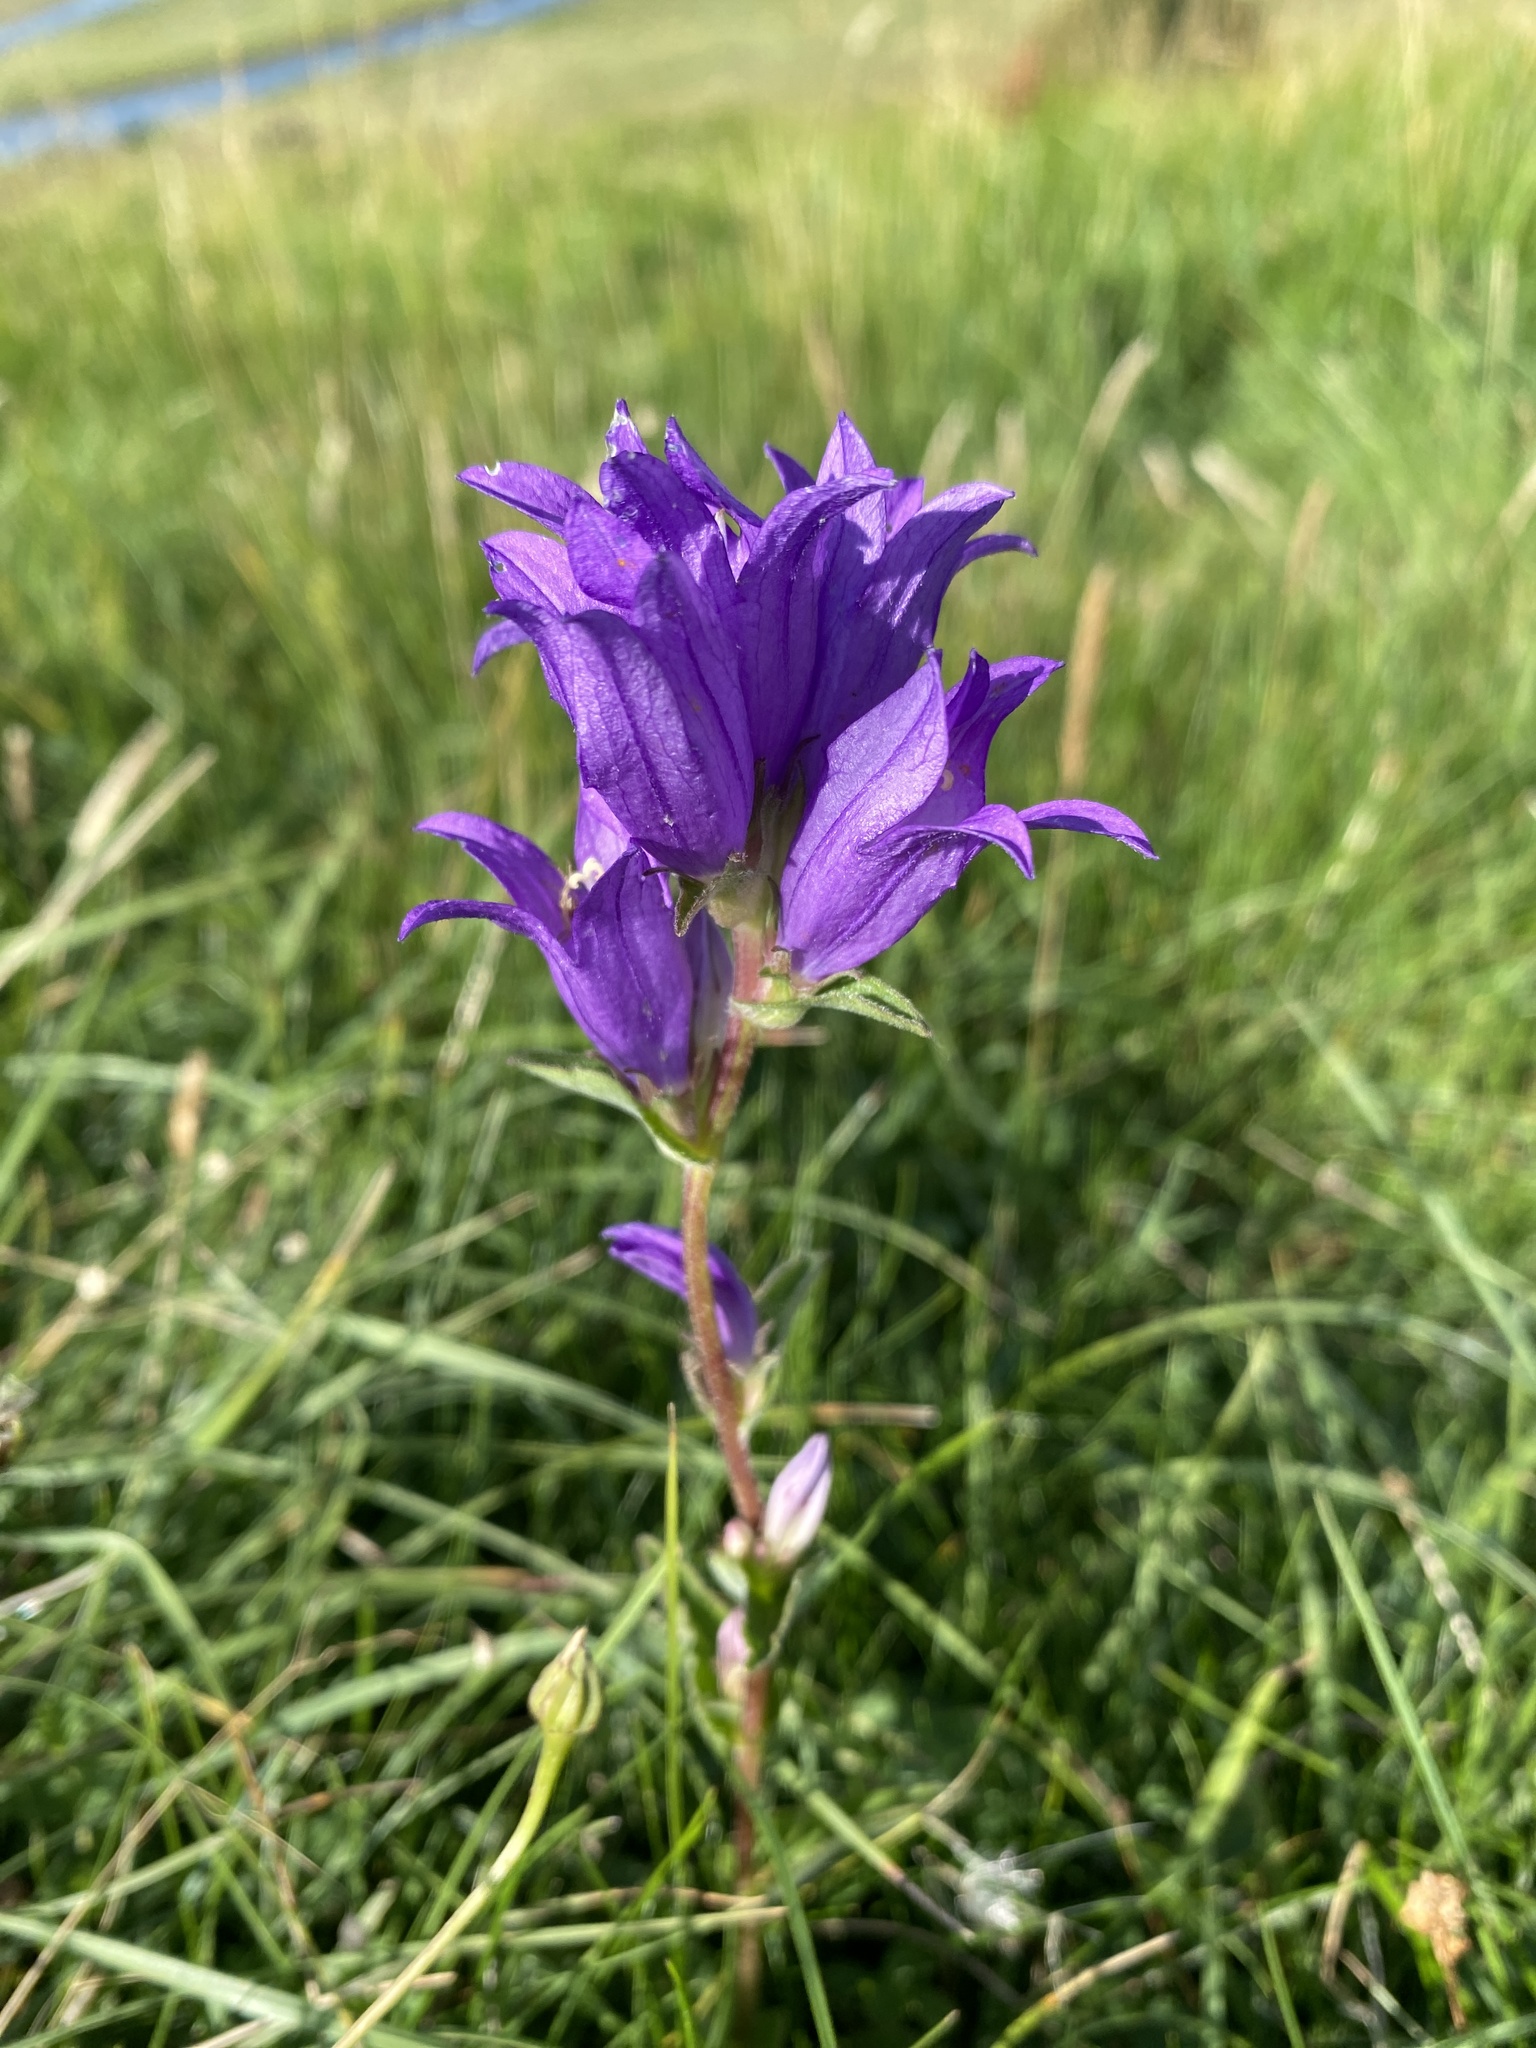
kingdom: Plantae
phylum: Tracheophyta
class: Magnoliopsida
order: Asterales
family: Campanulaceae
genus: Campanula
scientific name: Campanula glomerata
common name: Clustered bellflower
